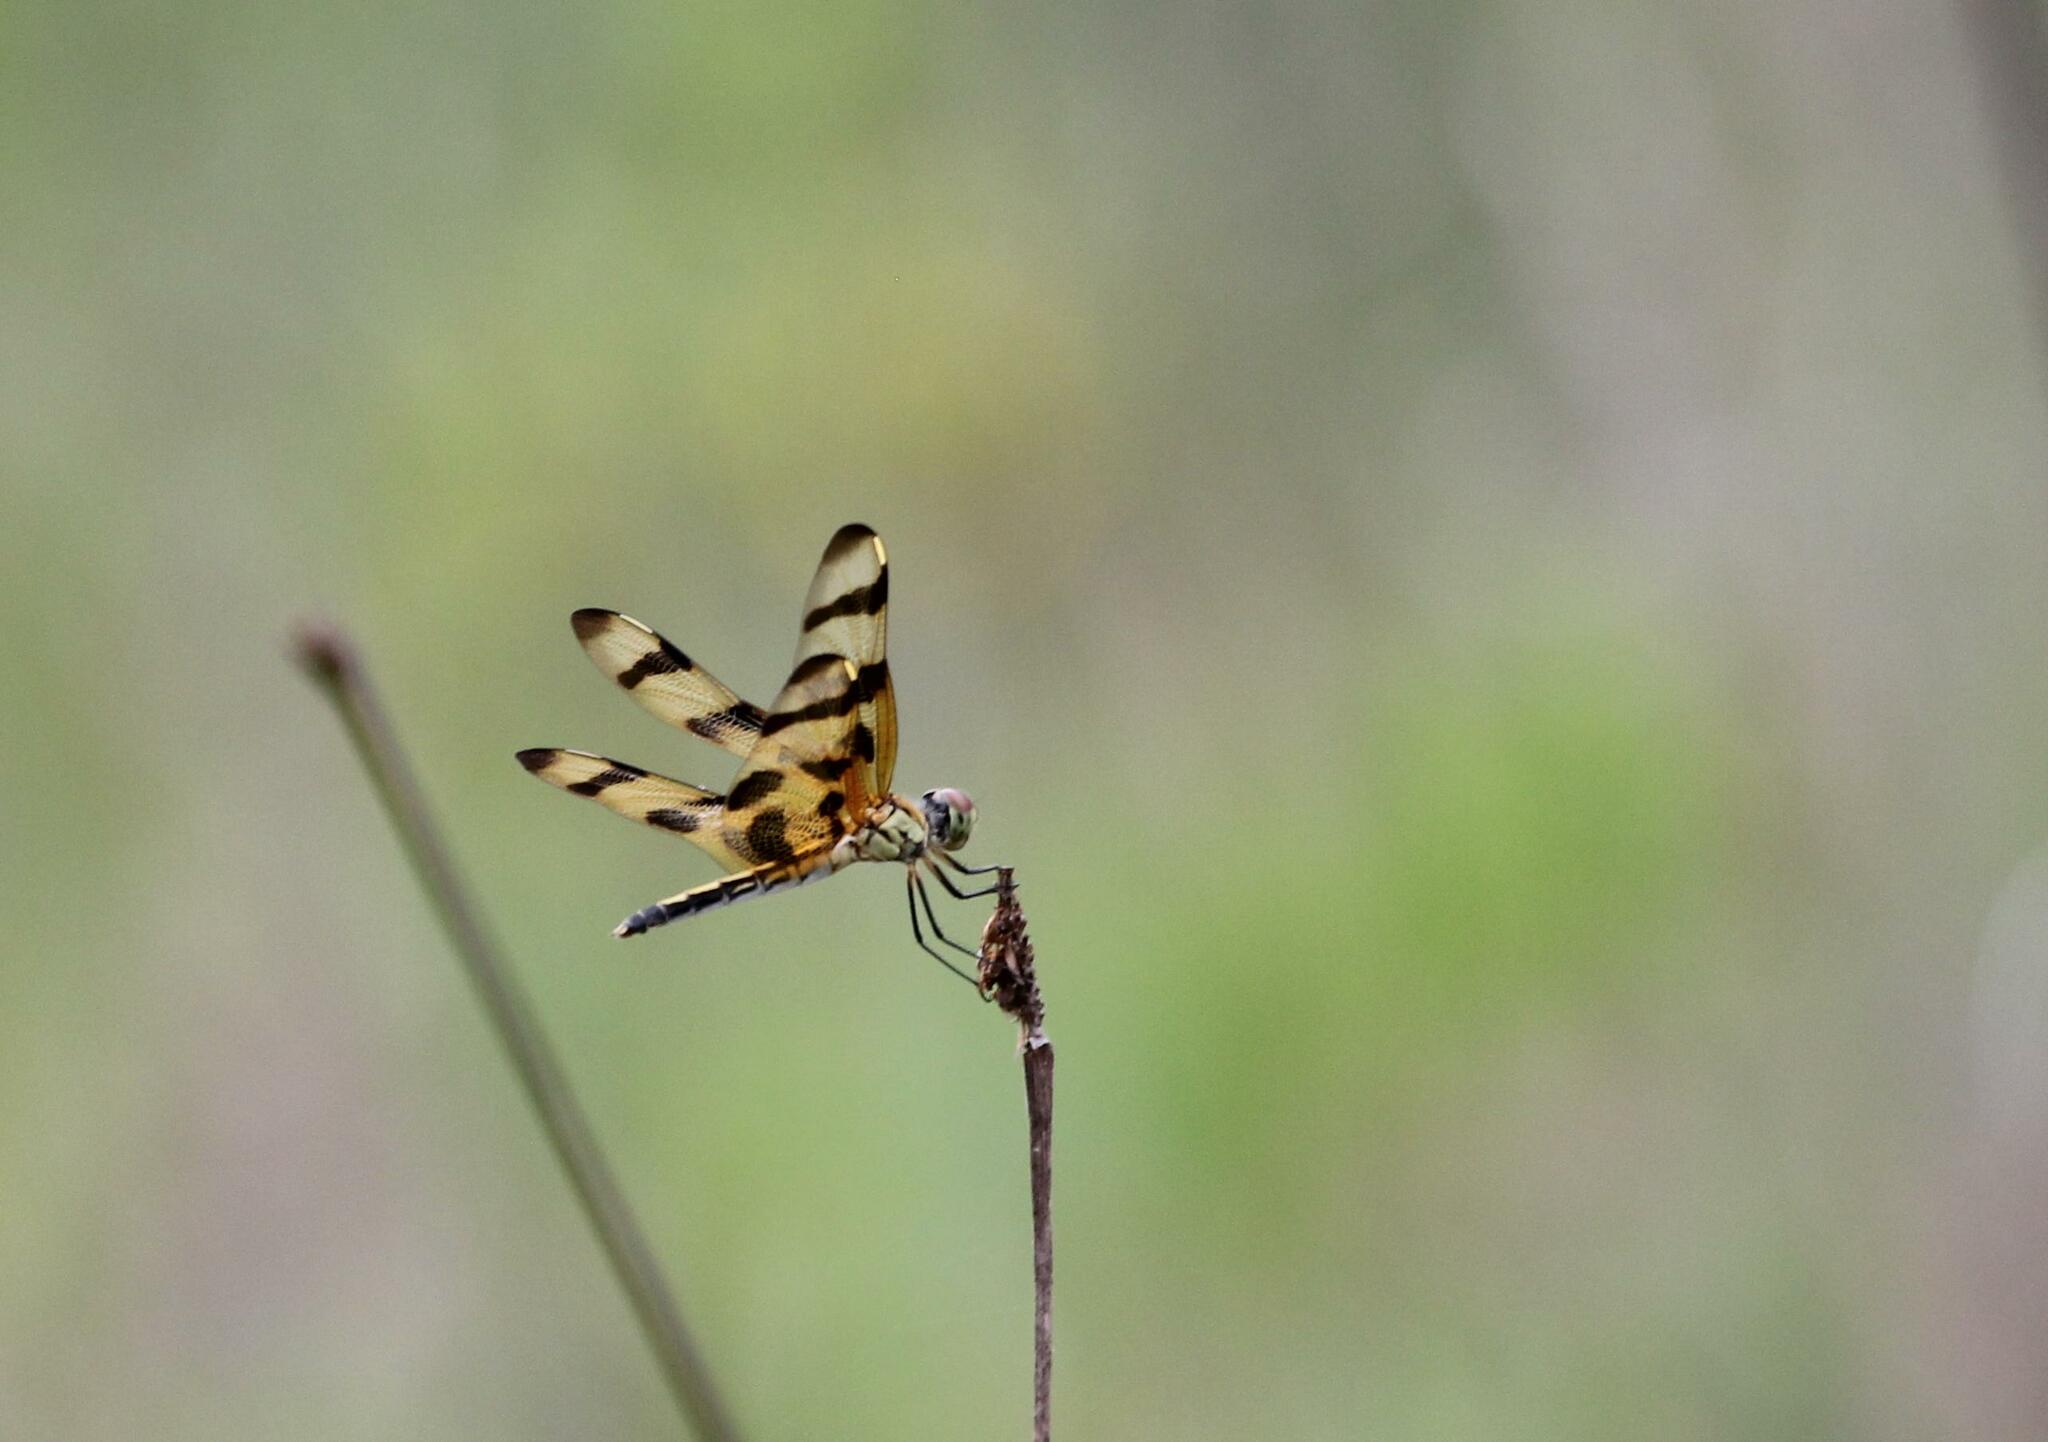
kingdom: Animalia
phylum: Arthropoda
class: Insecta
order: Odonata
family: Libellulidae
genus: Celithemis
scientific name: Celithemis eponina
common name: Halloween pennant
